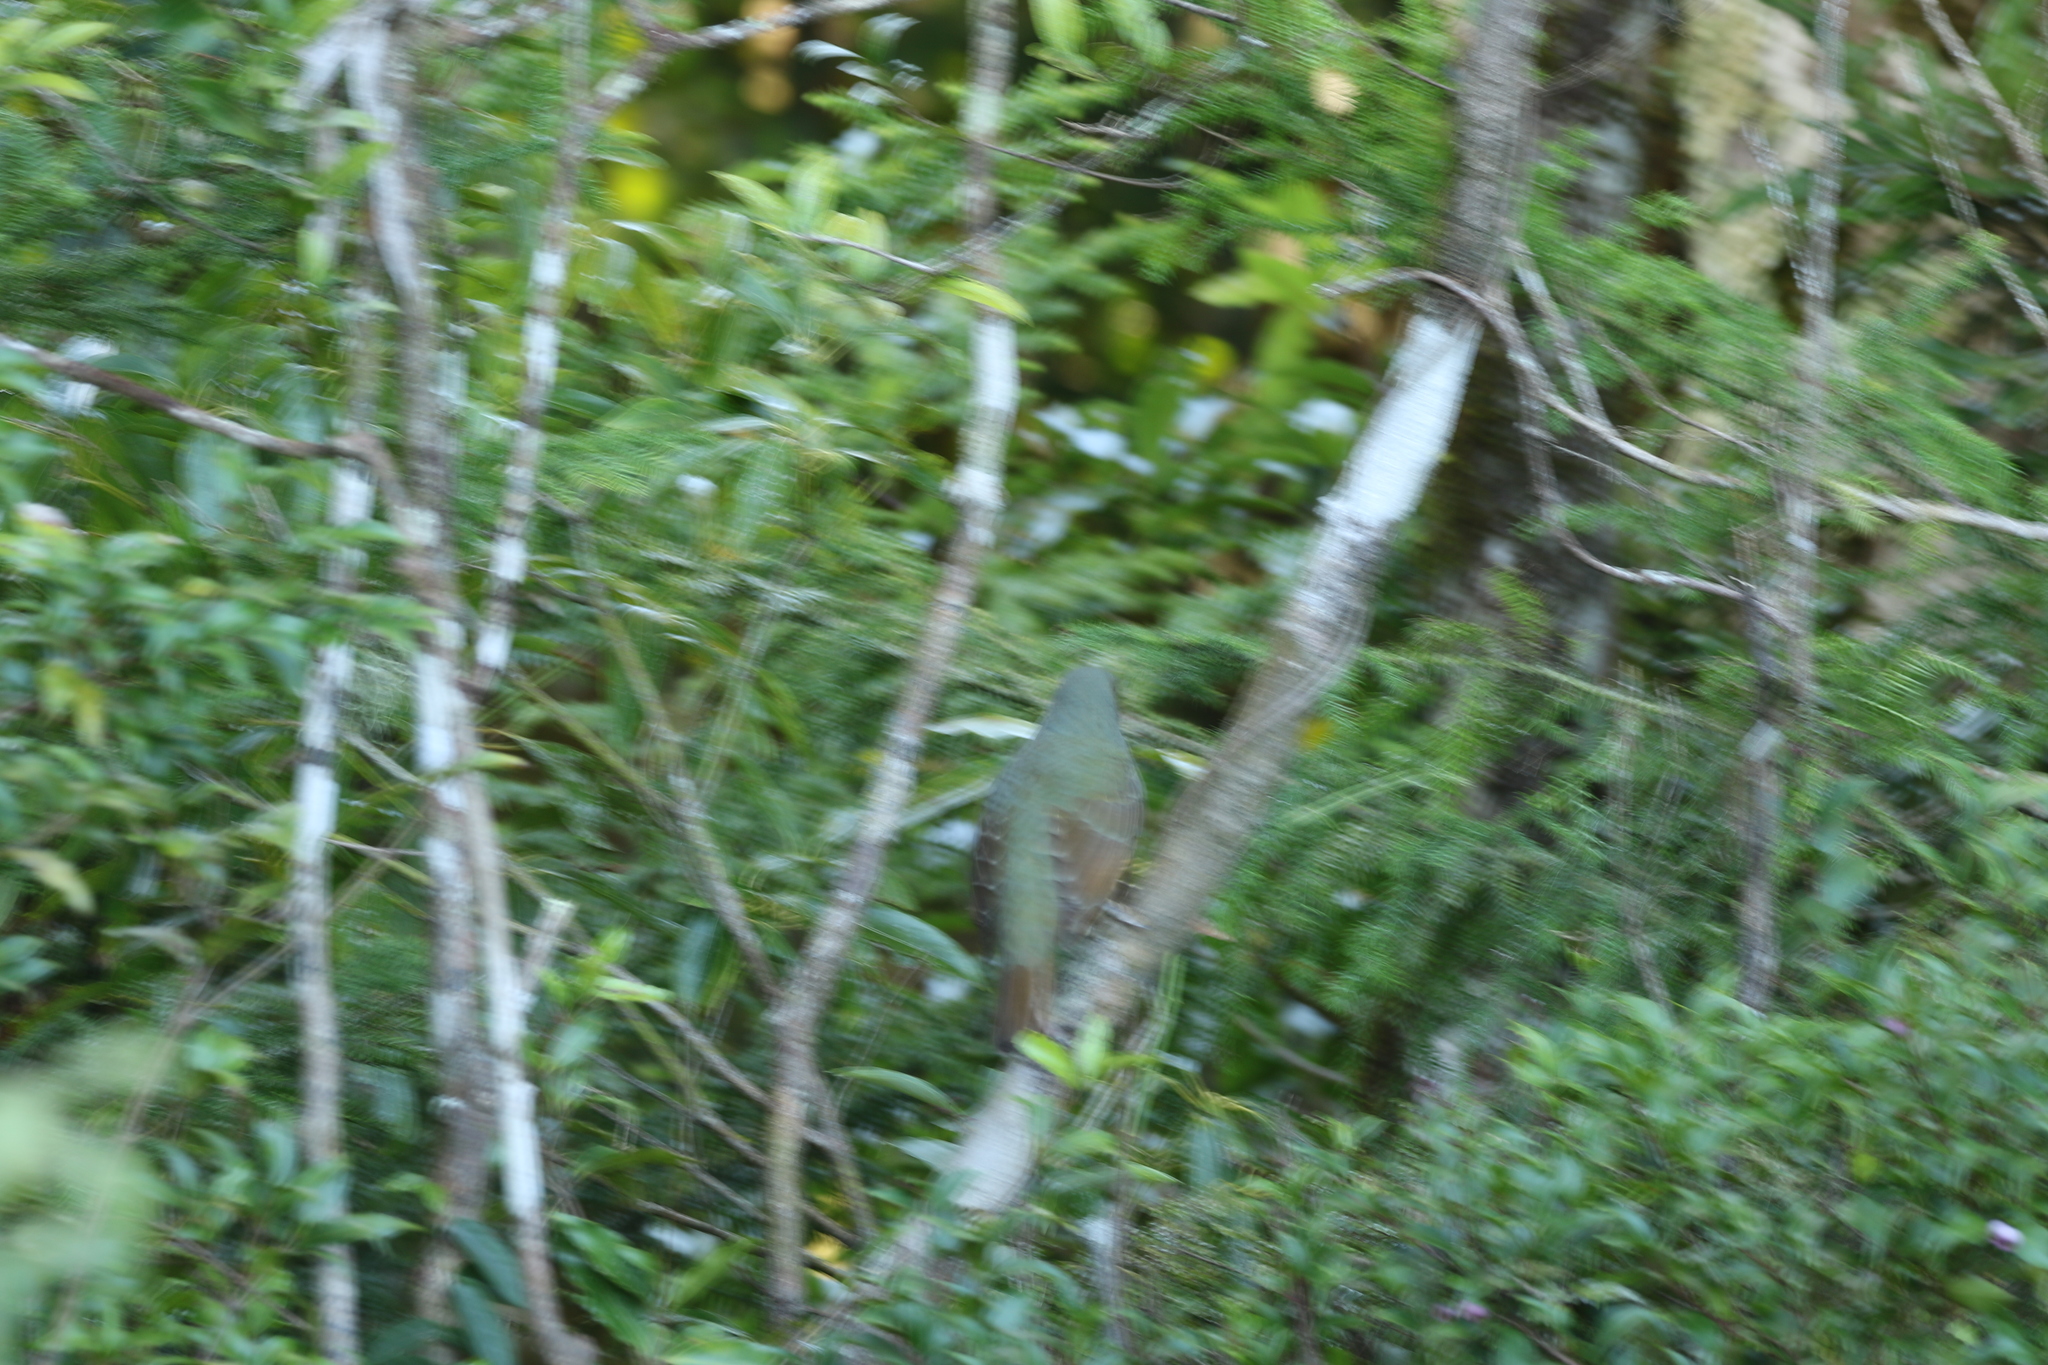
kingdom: Animalia
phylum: Chordata
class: Aves
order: Passeriformes
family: Ptilonorhynchidae
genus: Ptilonorhynchus
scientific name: Ptilonorhynchus violaceus
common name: Satin bowerbird
